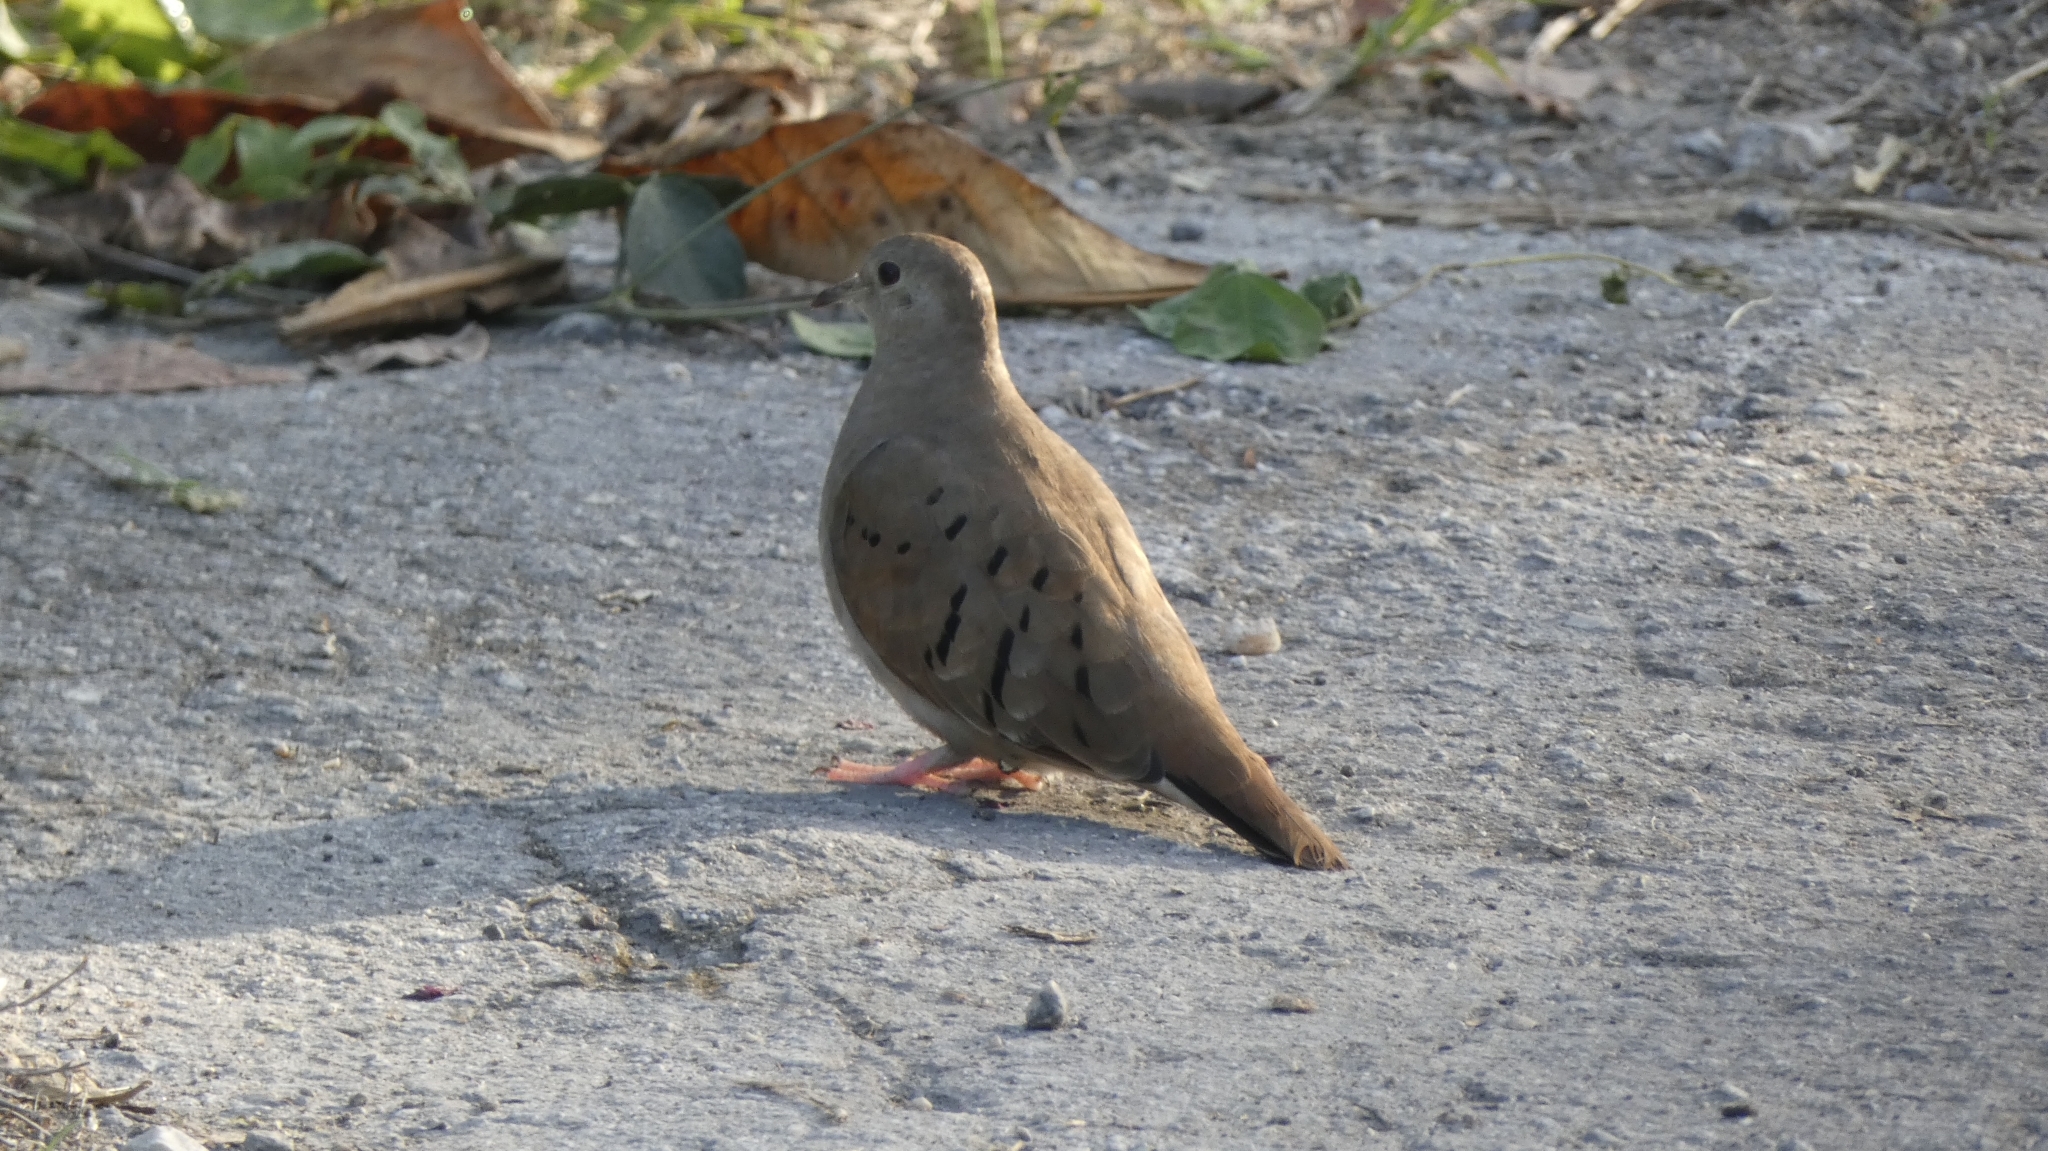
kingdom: Animalia
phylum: Chordata
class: Aves
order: Columbiformes
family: Columbidae
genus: Columbina
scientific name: Columbina talpacoti
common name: Ruddy ground dove
